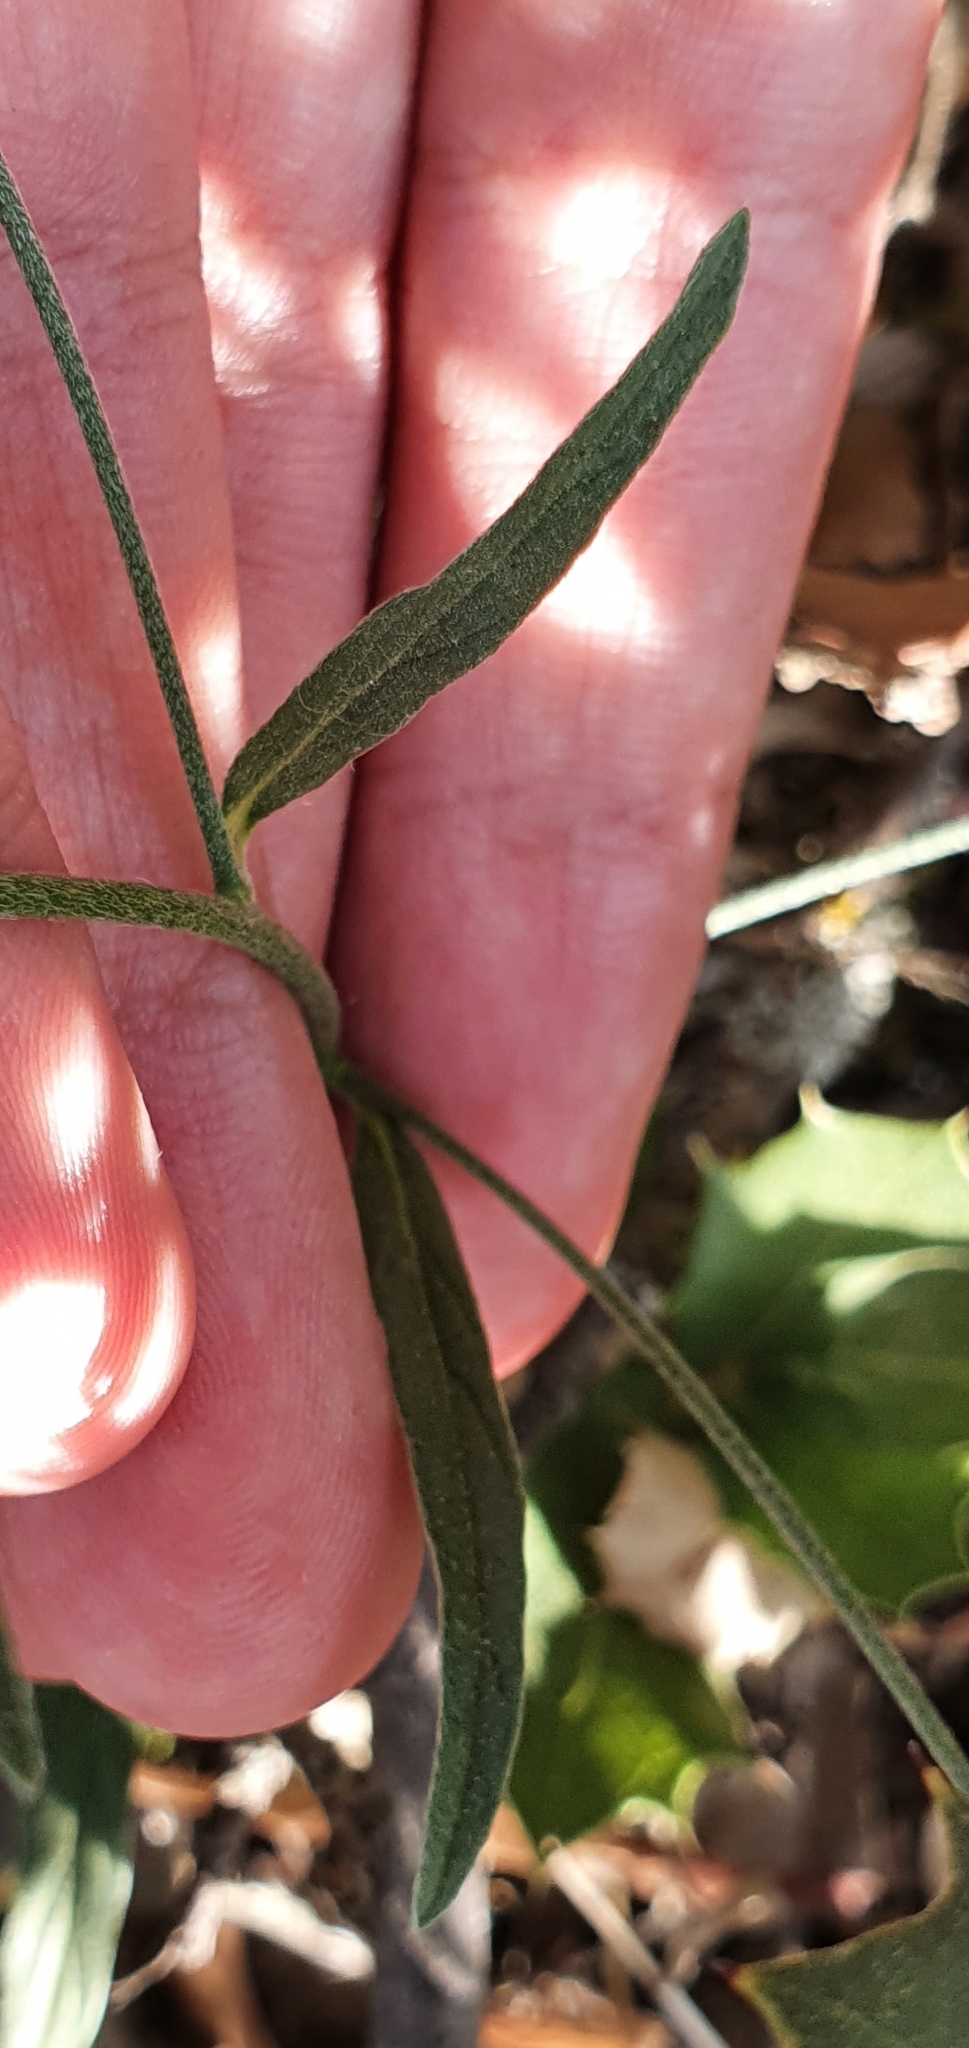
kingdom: Plantae
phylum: Tracheophyta
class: Magnoliopsida
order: Solanales
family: Convolvulaceae
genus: Convolvulus
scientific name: Convolvulus cantabrica
